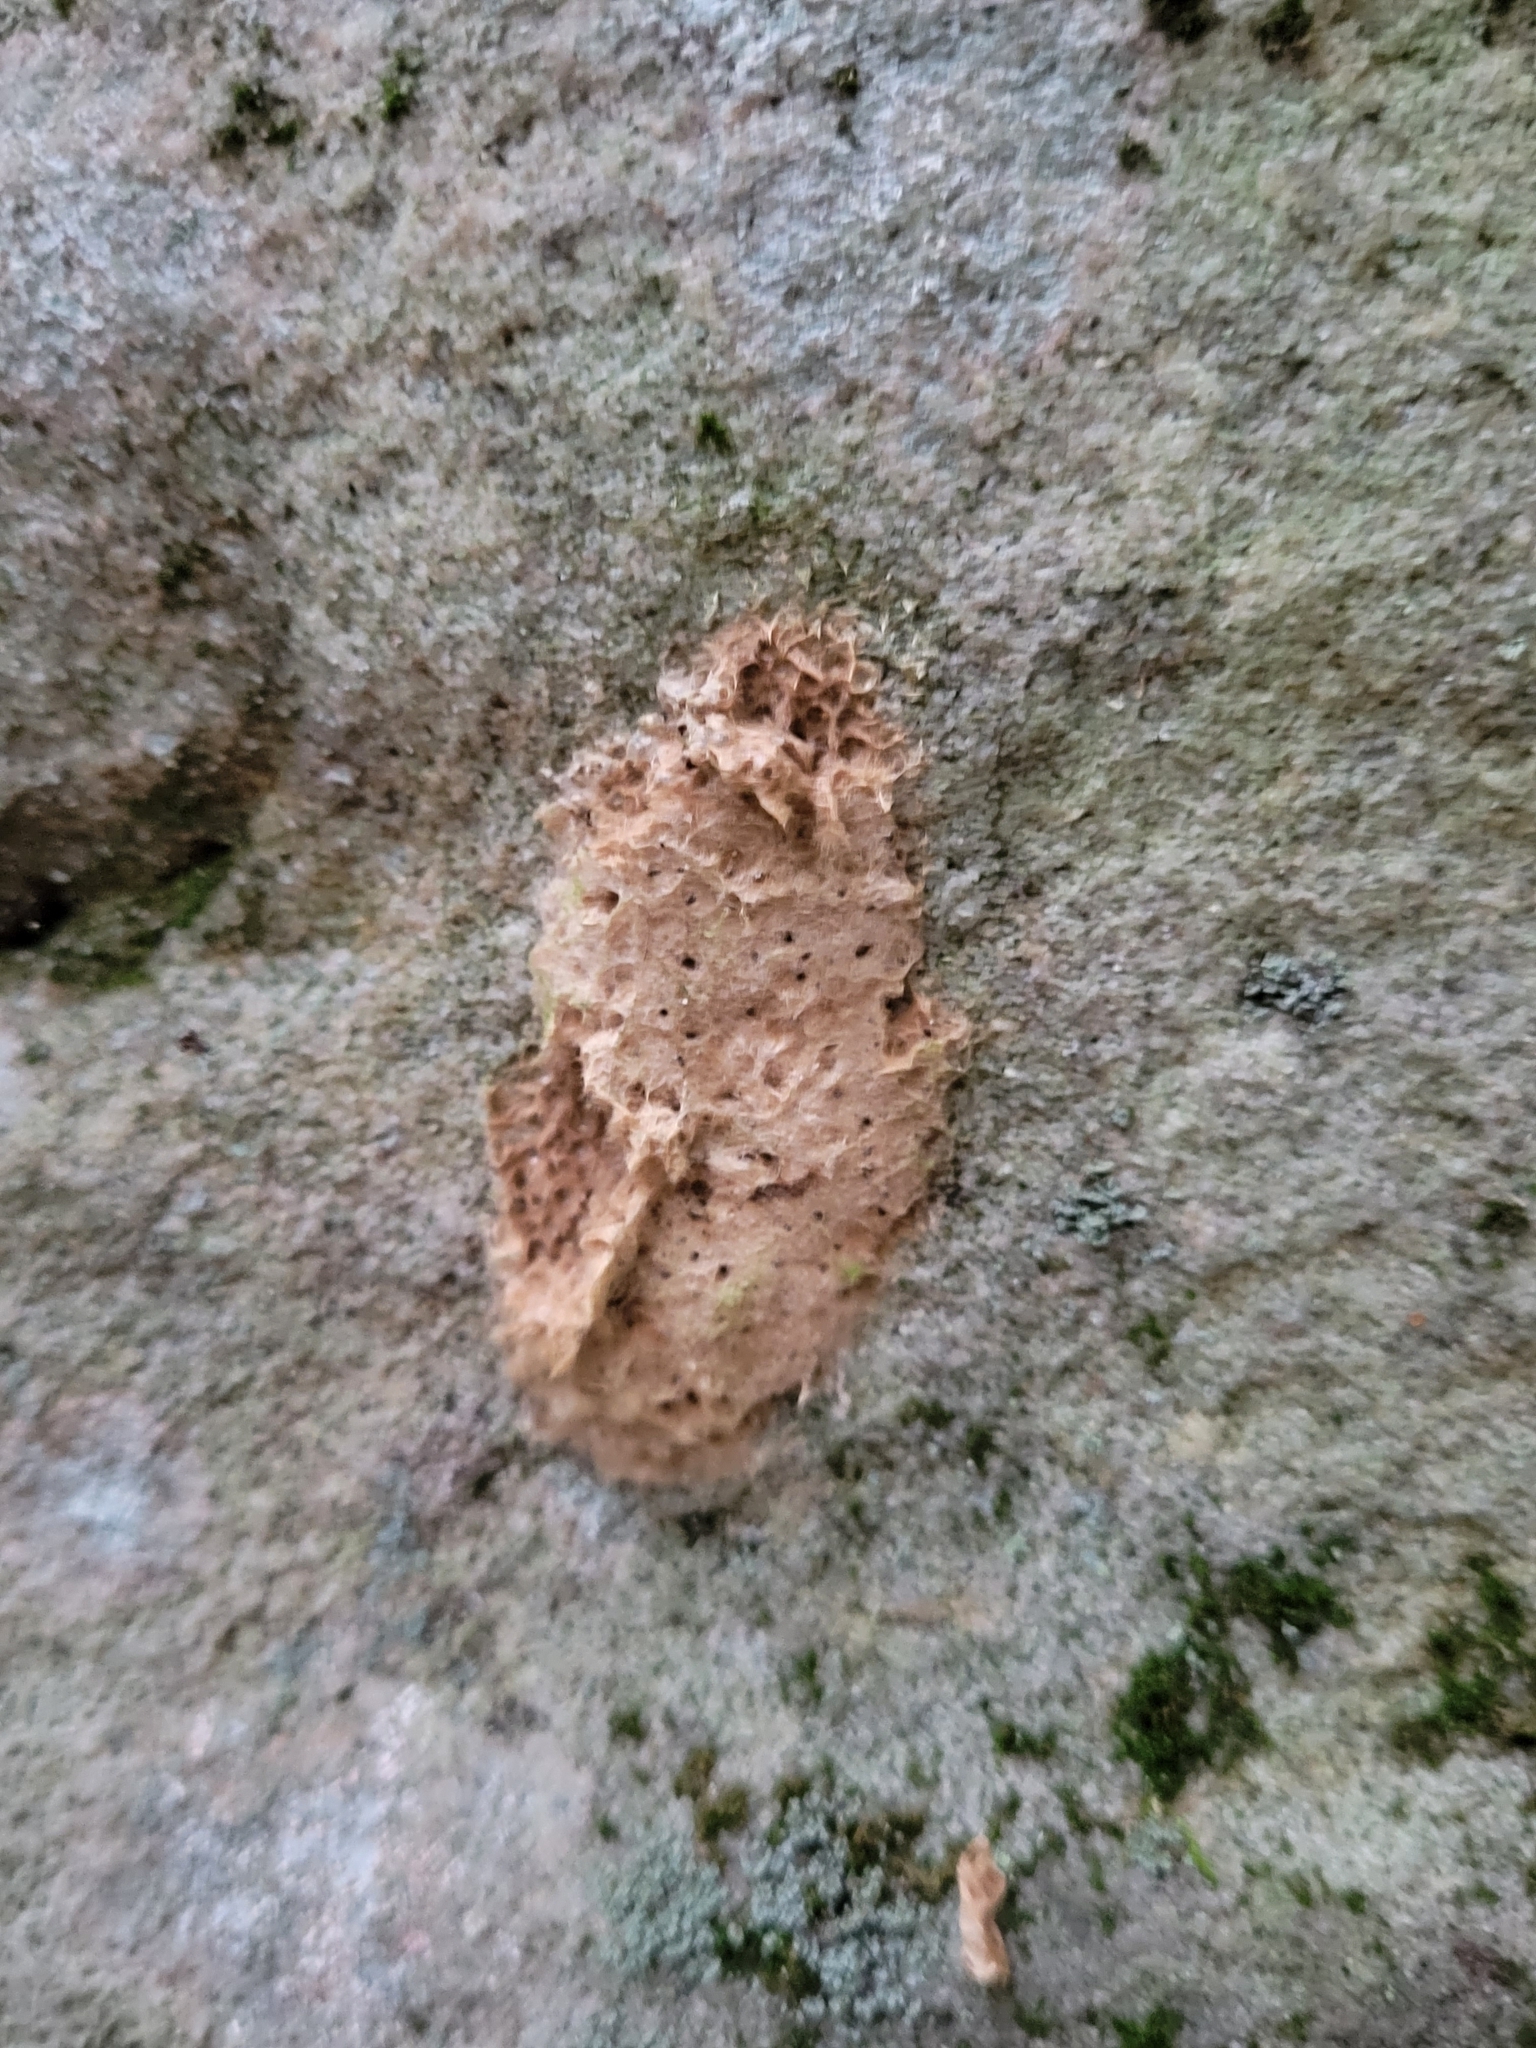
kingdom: Animalia
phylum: Arthropoda
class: Insecta
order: Lepidoptera
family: Erebidae
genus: Lymantria
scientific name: Lymantria dispar
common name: Gypsy moth
